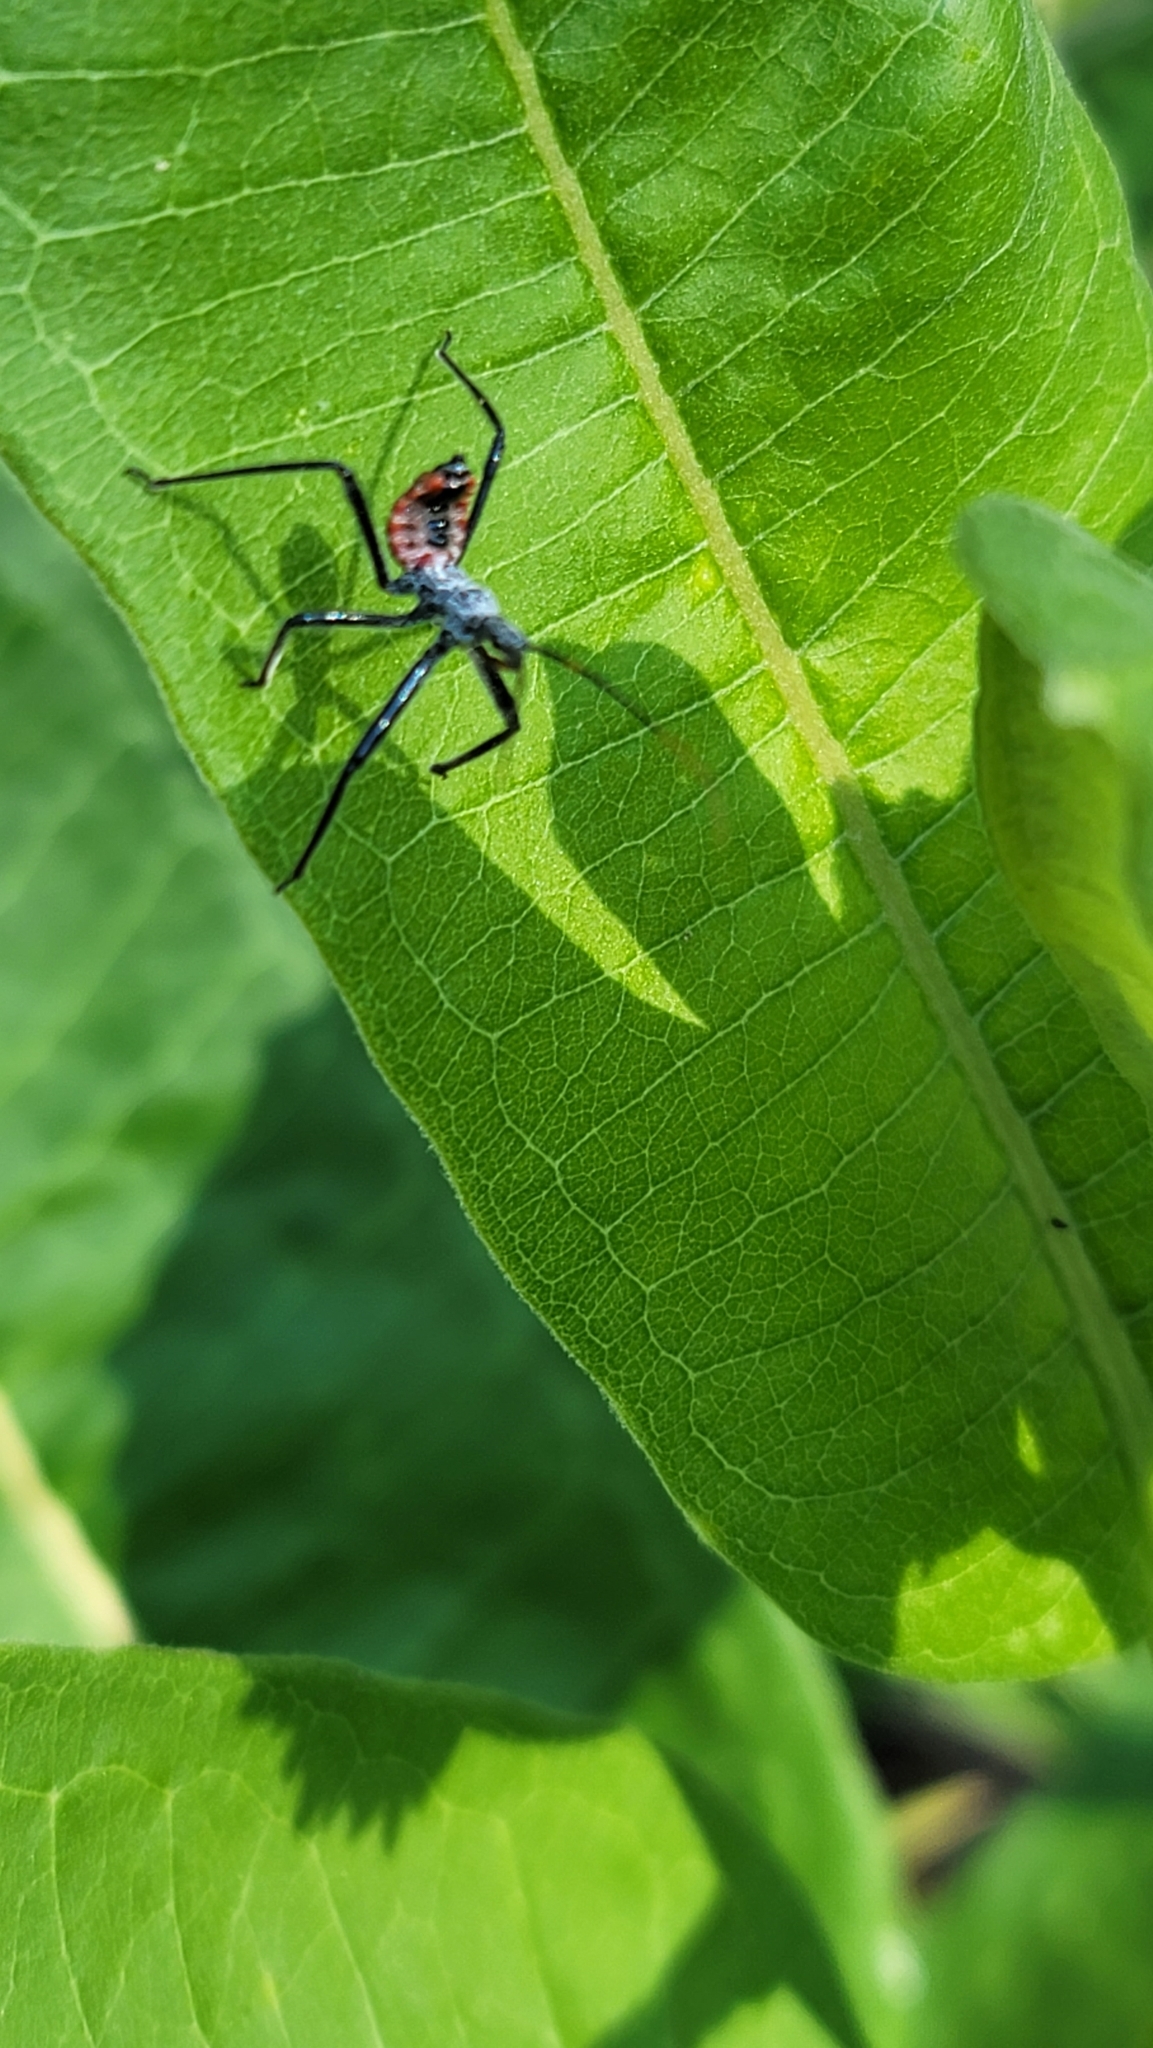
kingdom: Animalia
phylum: Arthropoda
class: Insecta
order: Hemiptera
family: Reduviidae
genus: Arilus
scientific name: Arilus cristatus
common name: North american wheel bug
